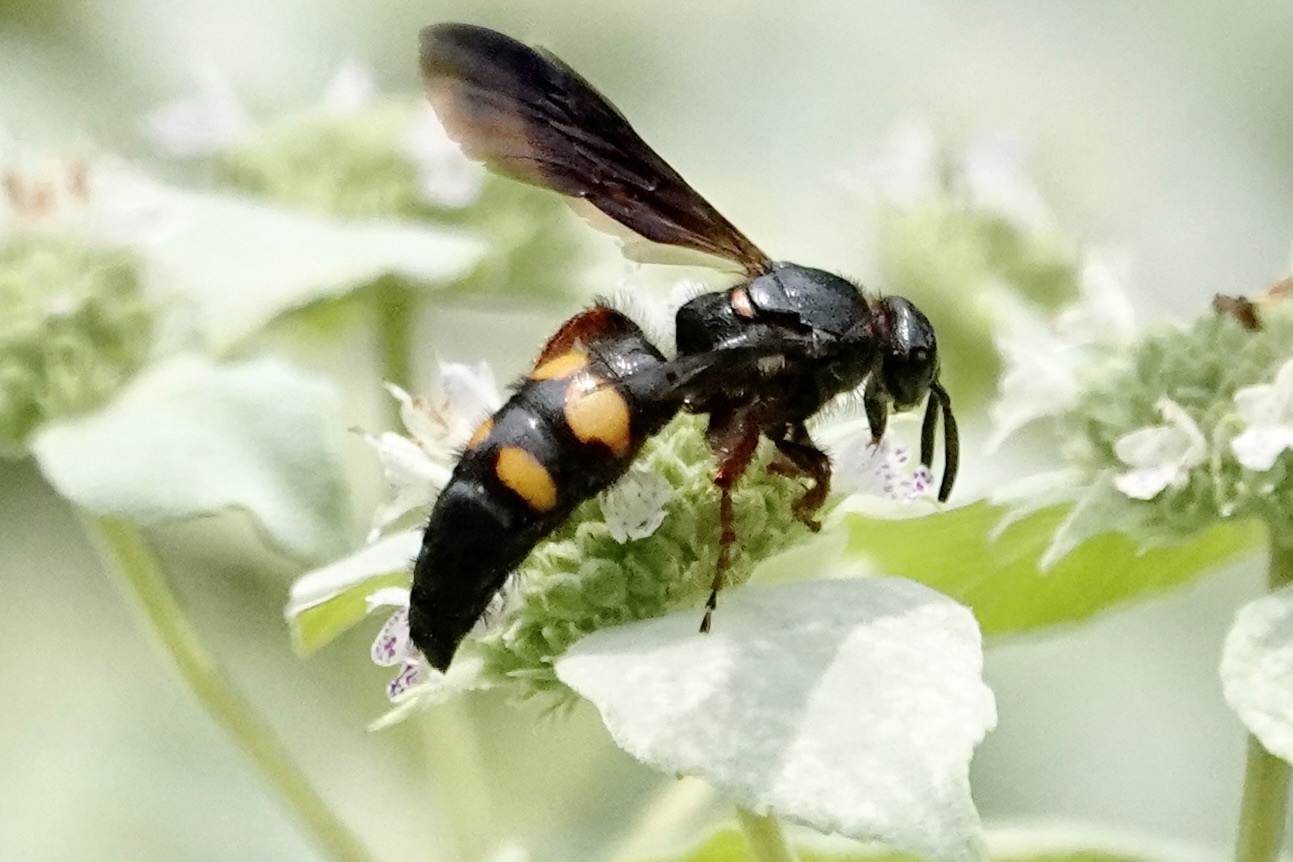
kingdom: Animalia
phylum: Arthropoda
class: Insecta
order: Hymenoptera
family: Scoliidae
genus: Scolia
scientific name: Scolia nobilitata
